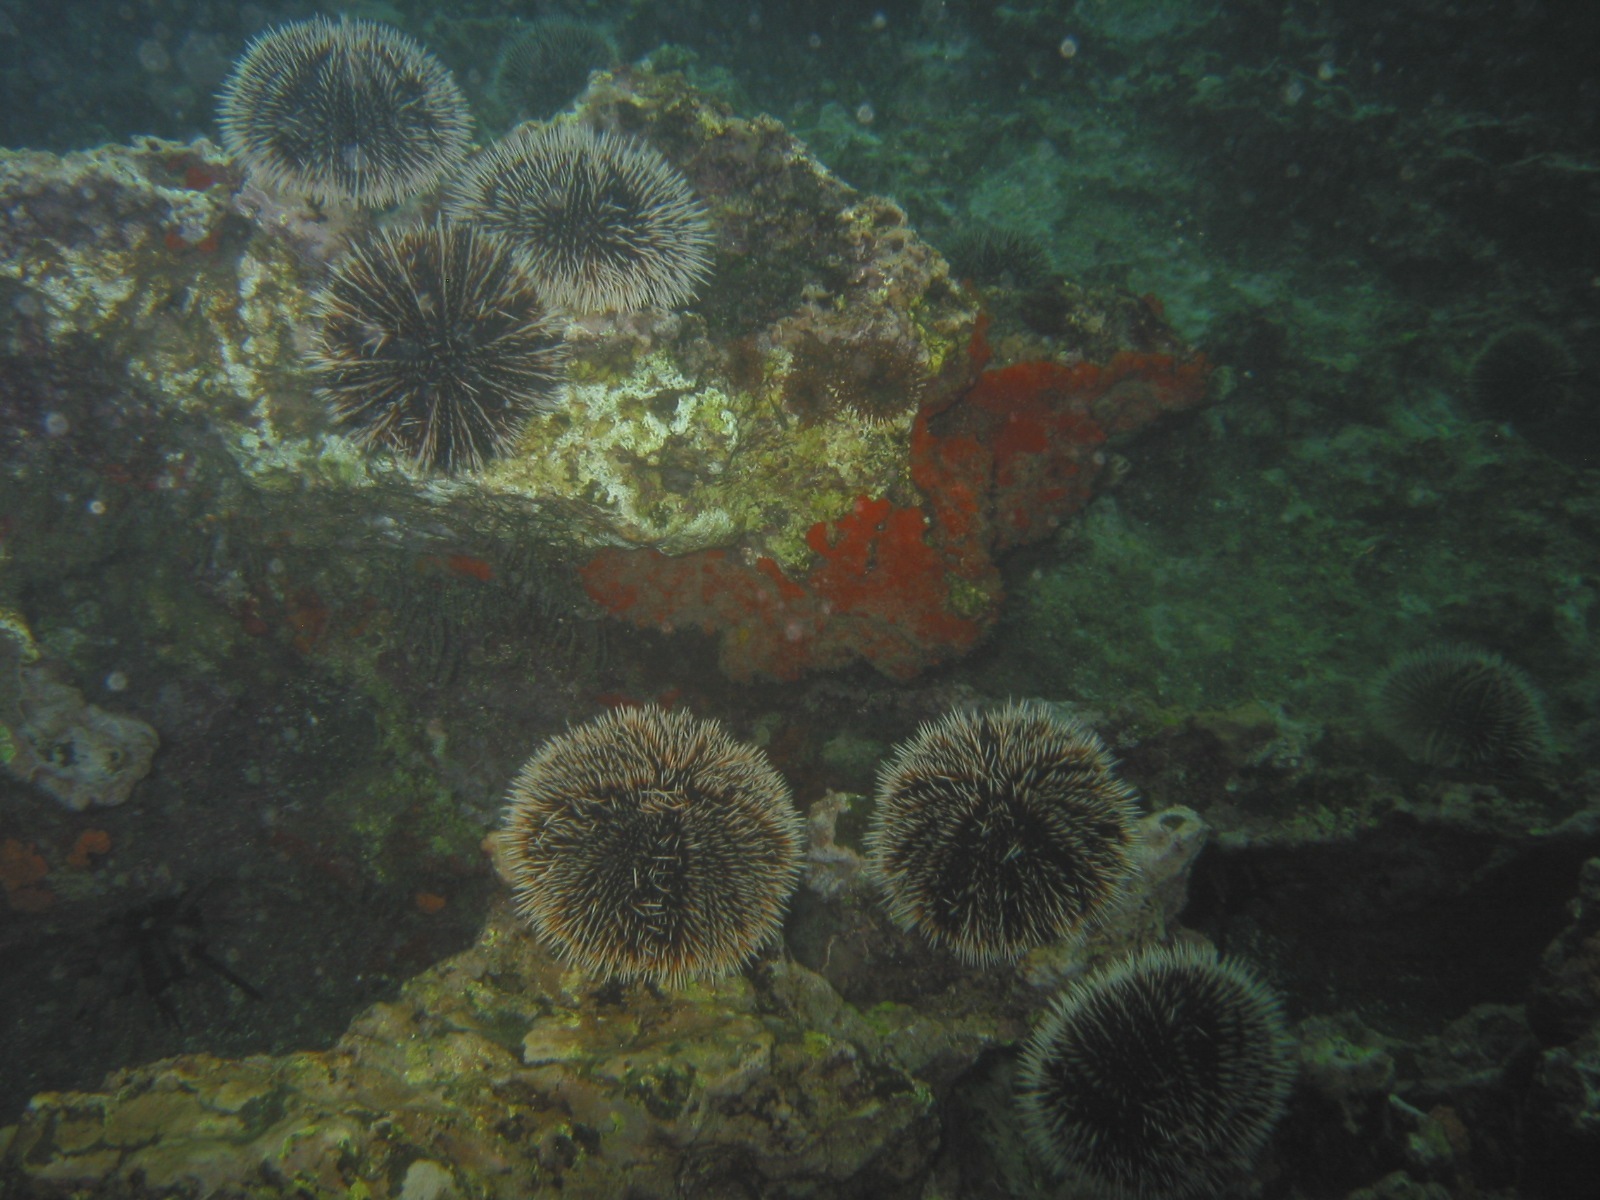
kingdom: Animalia
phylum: Echinodermata
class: Echinoidea
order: Camarodonta
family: Toxopneustidae
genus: Tripneustes
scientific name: Tripneustes depressus
